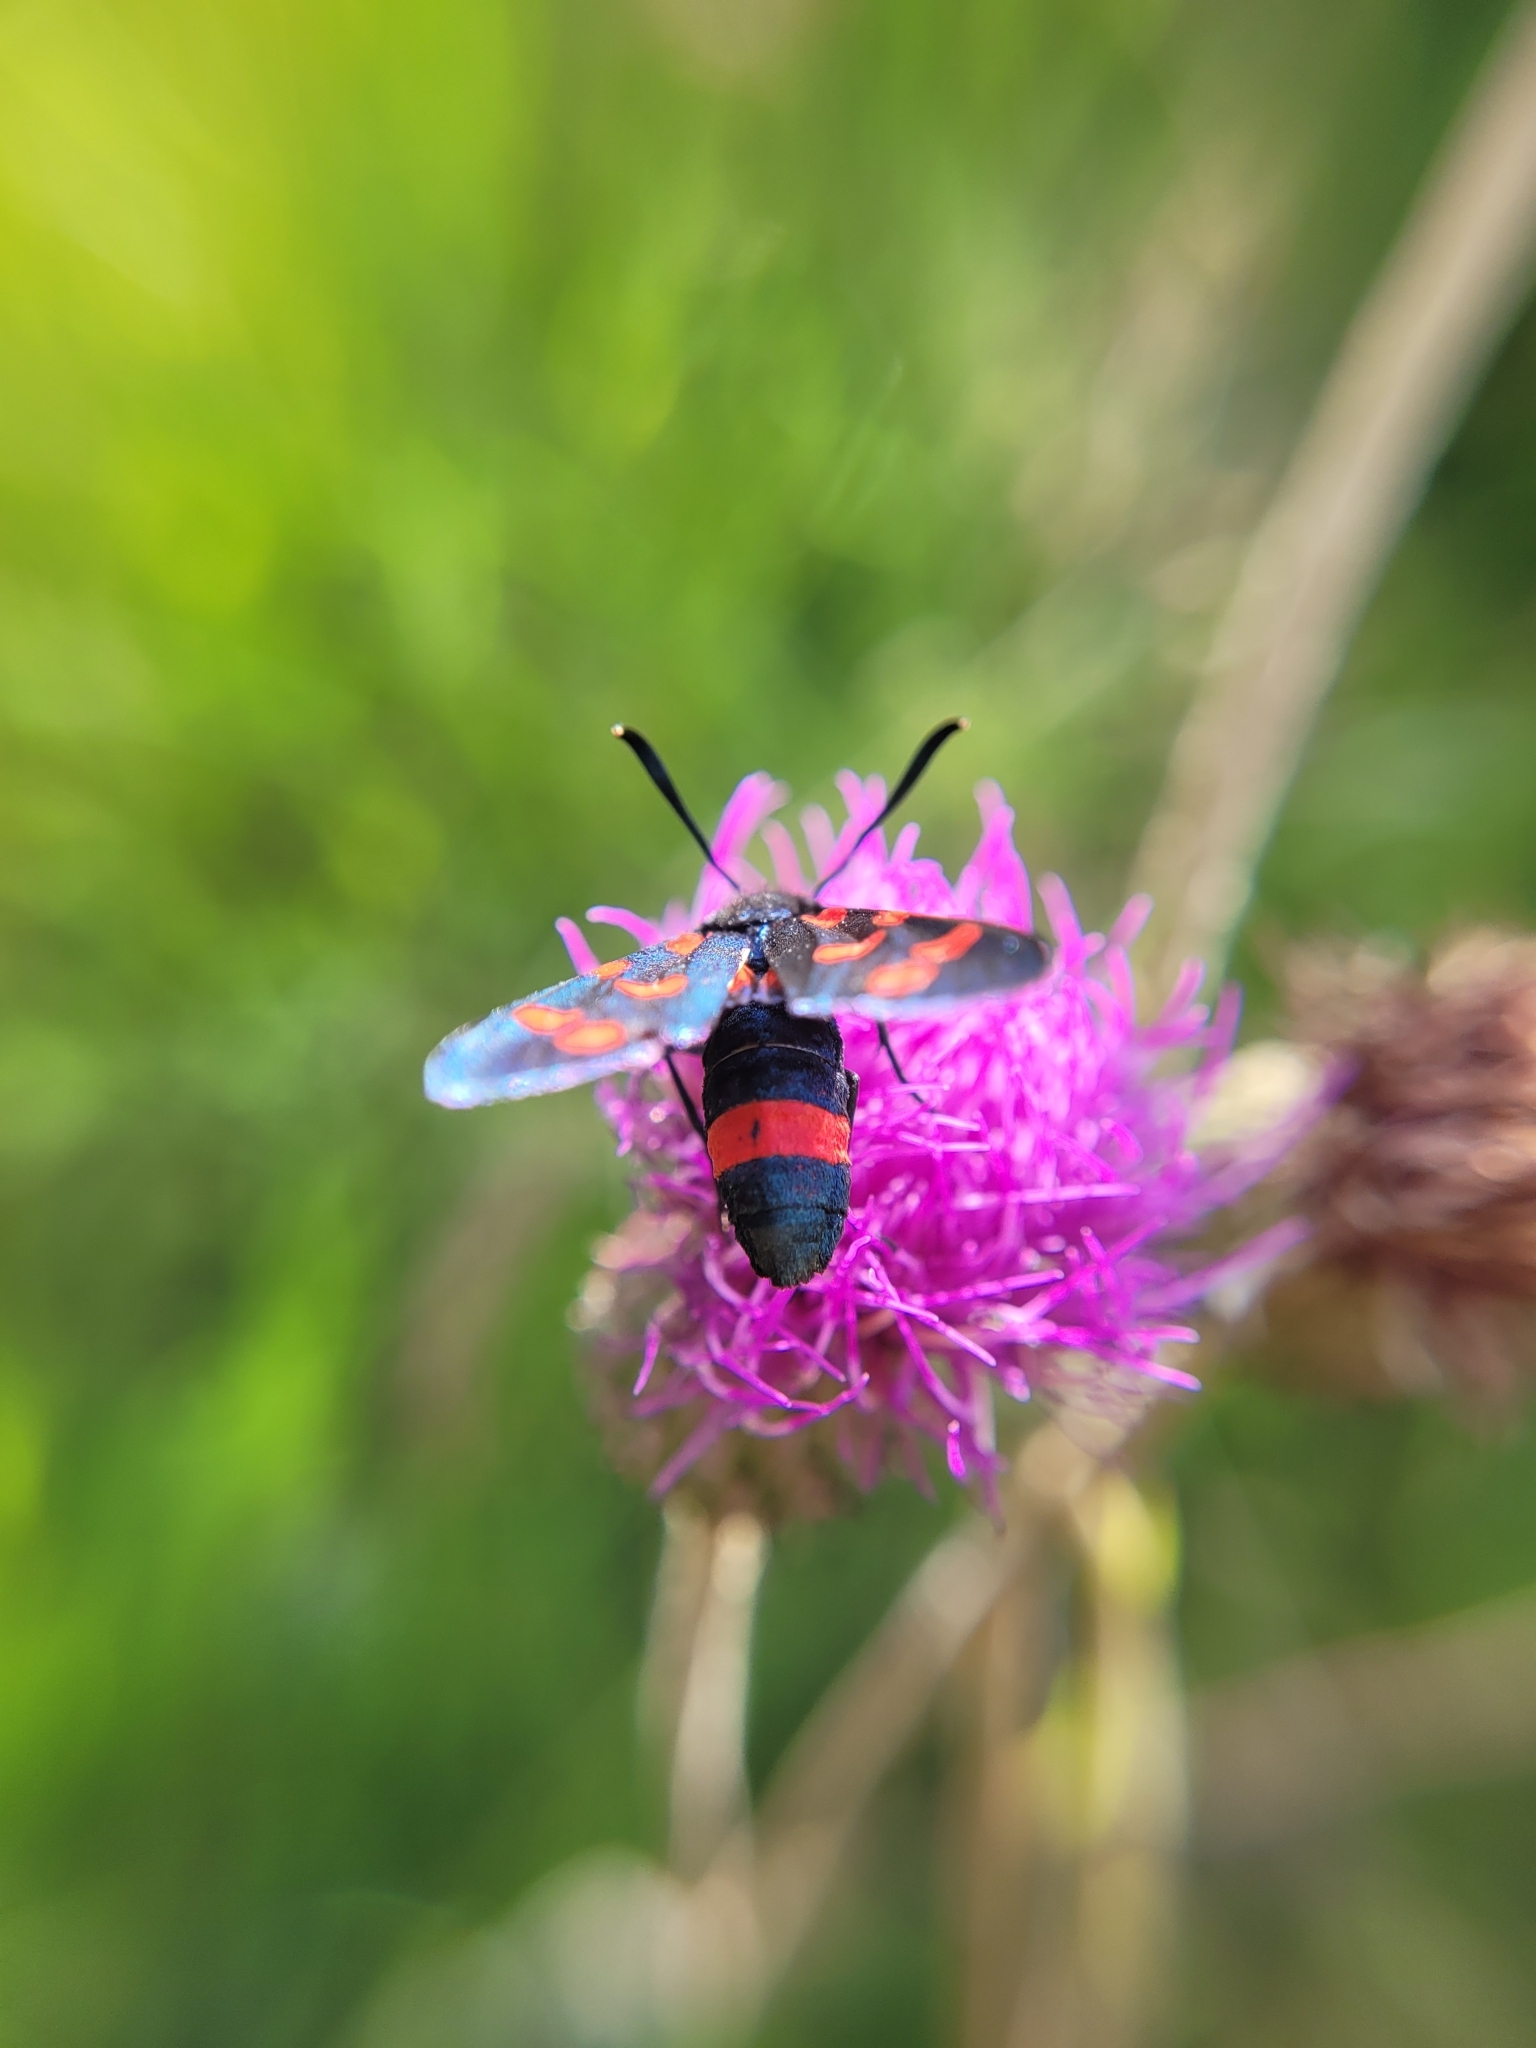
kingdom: Animalia
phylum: Arthropoda
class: Insecta
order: Lepidoptera
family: Zygaenidae
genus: Zygaena
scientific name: Zygaena ephialtes
